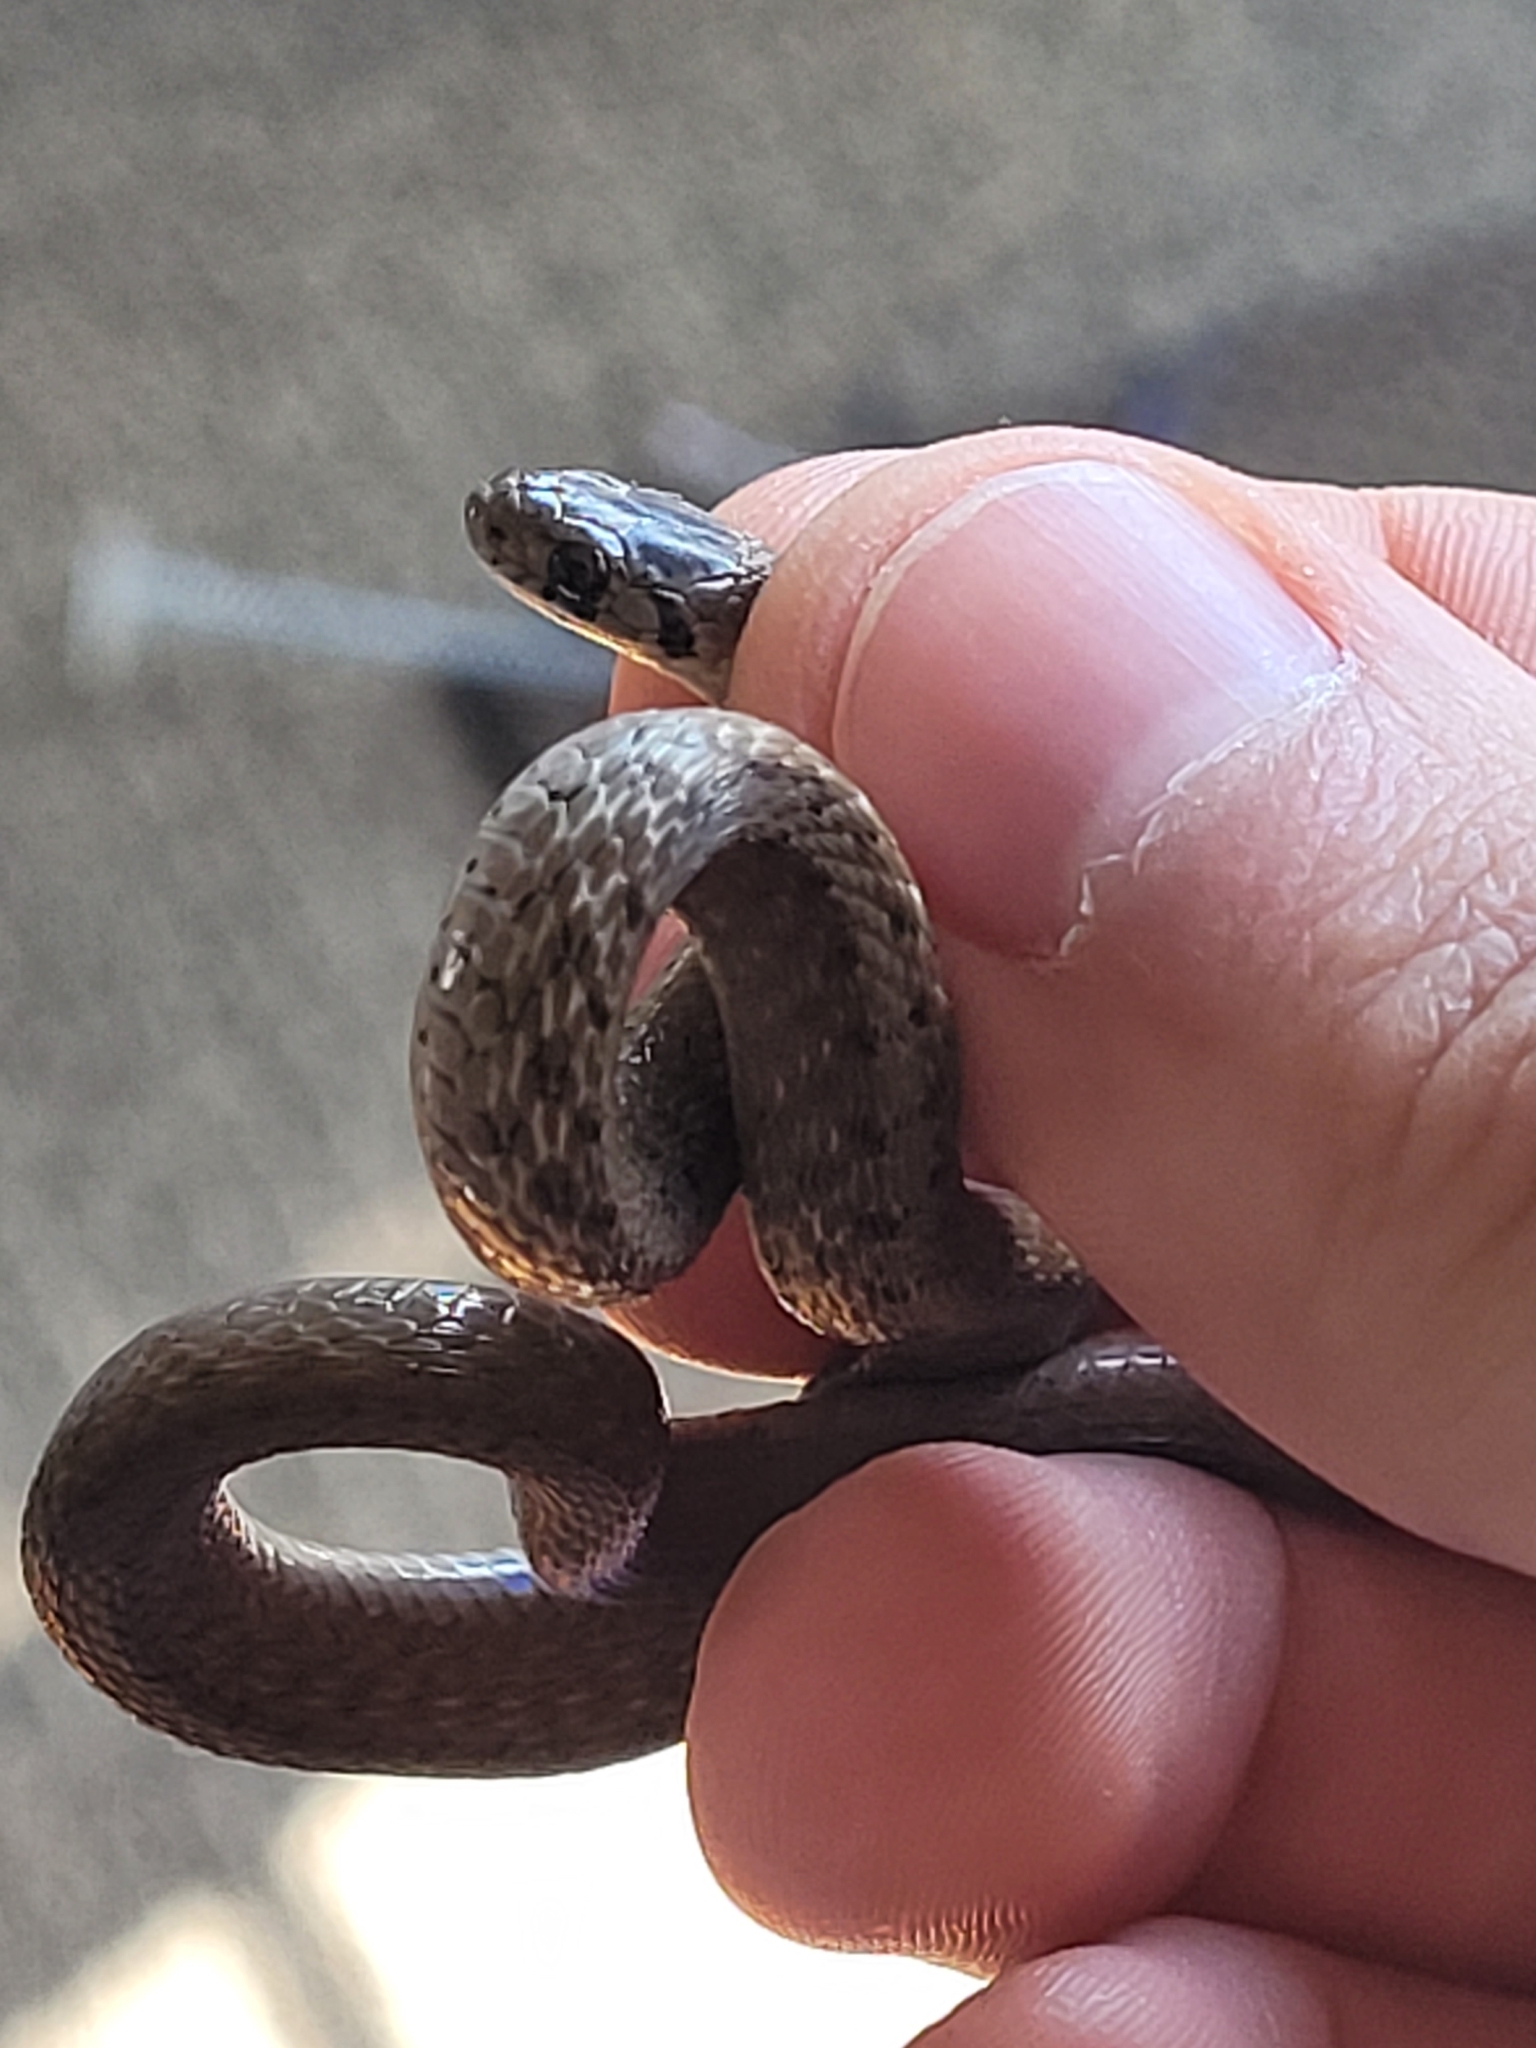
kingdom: Animalia
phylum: Chordata
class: Squamata
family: Colubridae
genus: Storeria
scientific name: Storeria dekayi
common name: (dekay’s) brown snake
